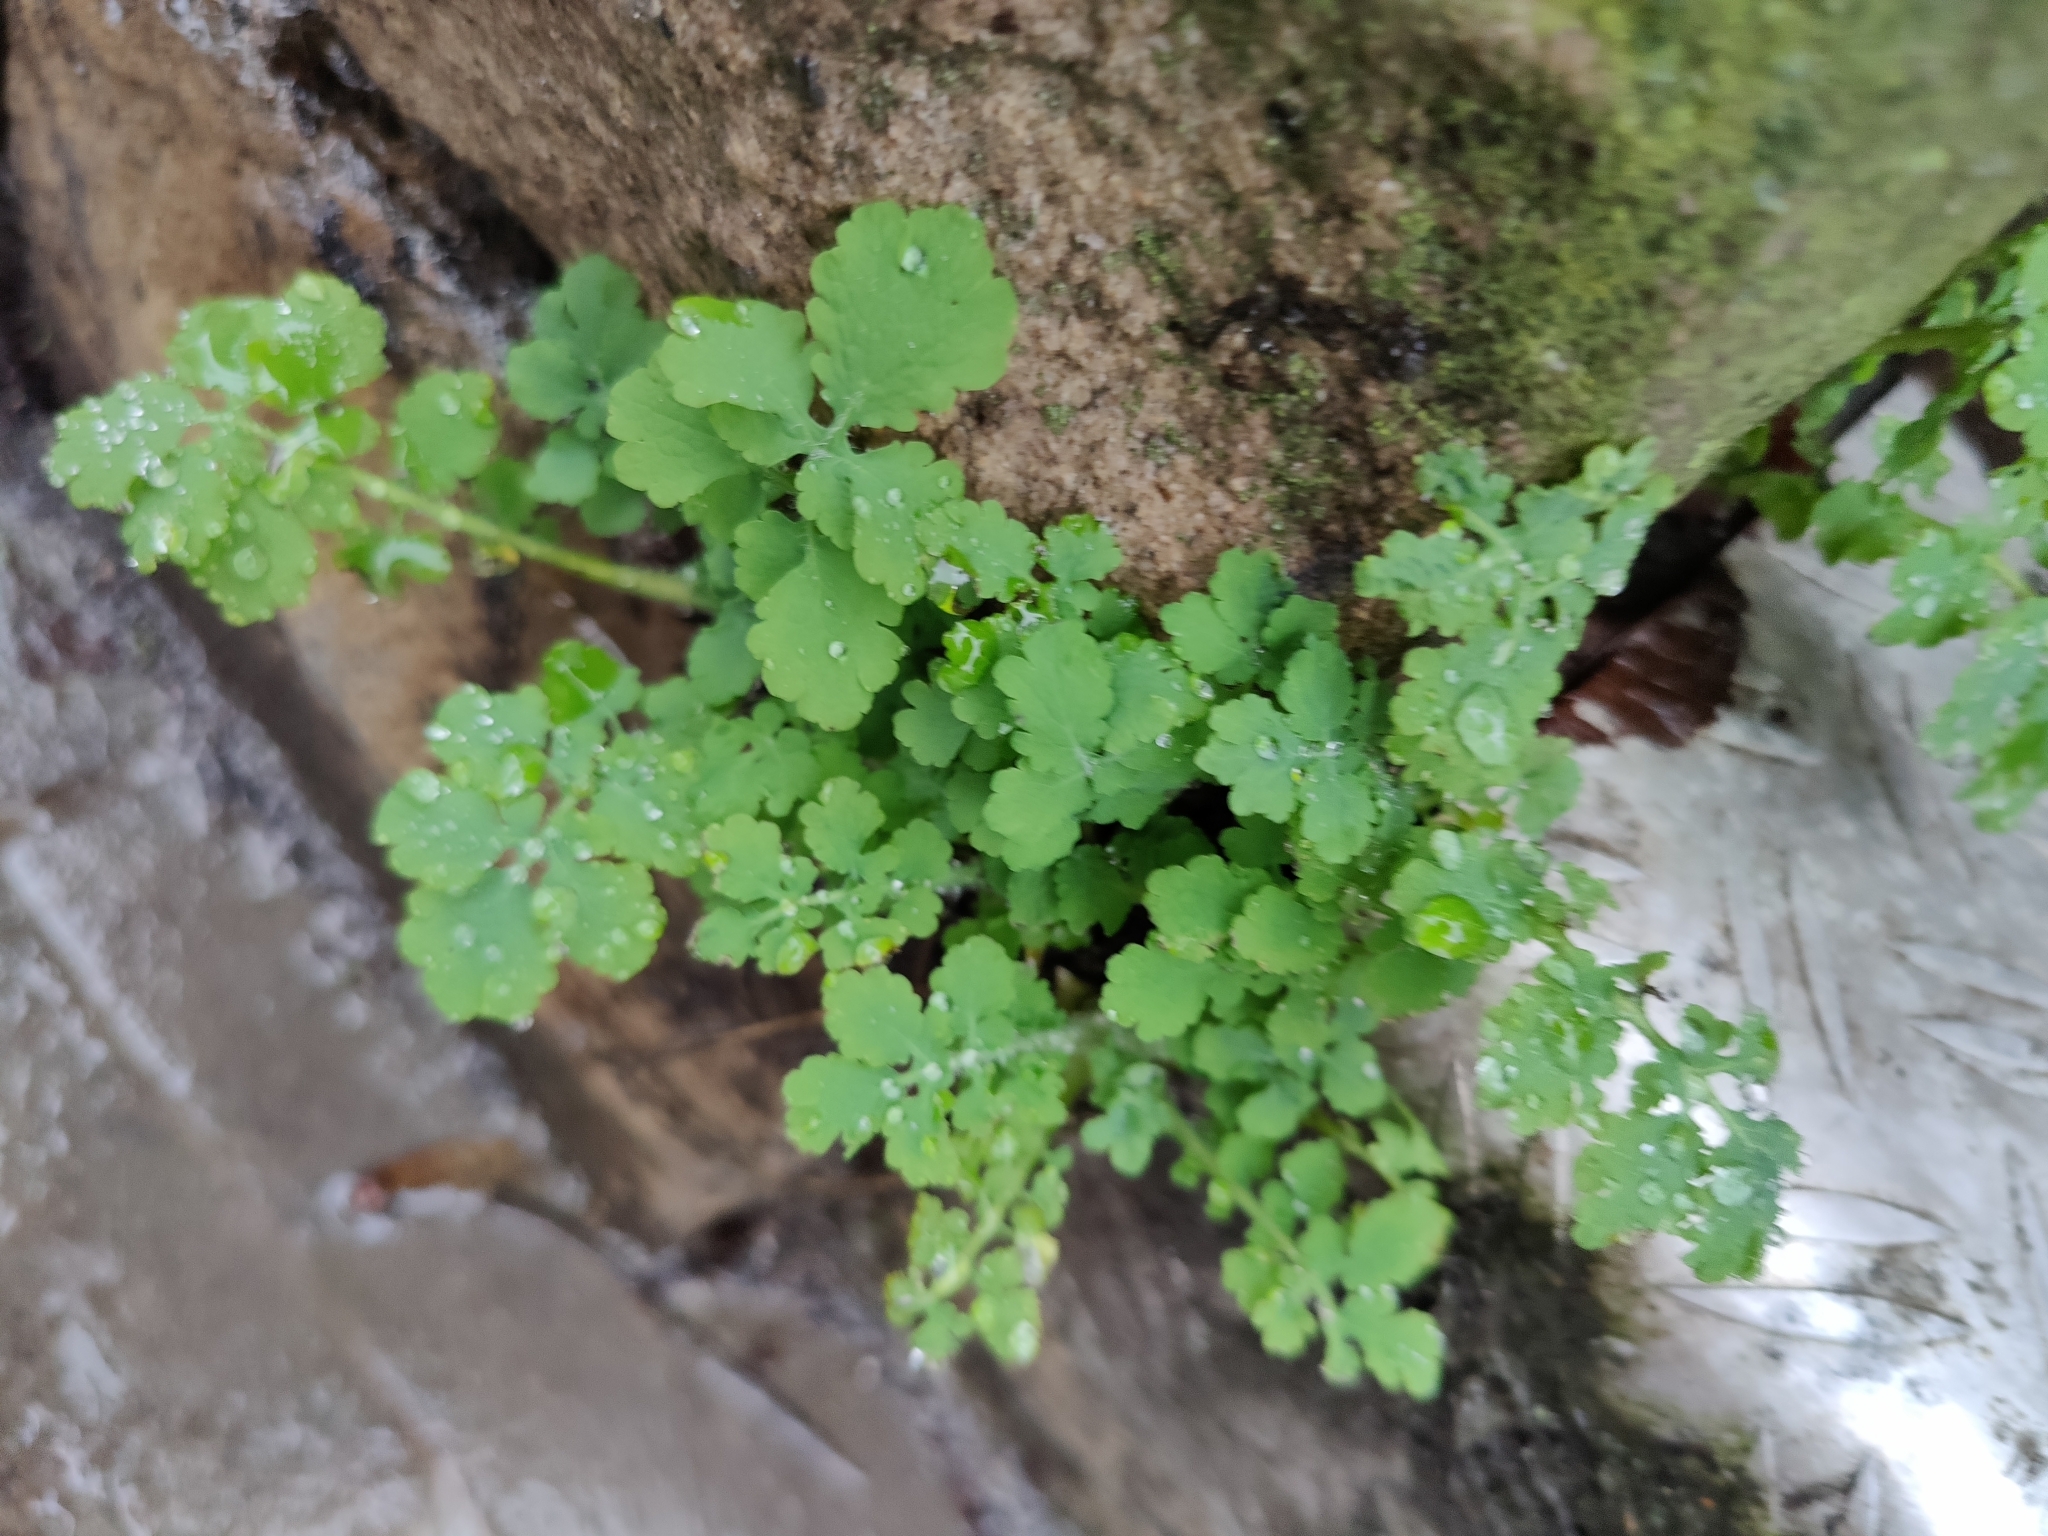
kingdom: Plantae
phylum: Tracheophyta
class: Magnoliopsida
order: Ranunculales
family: Papaveraceae
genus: Chelidonium
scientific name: Chelidonium majus
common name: Greater celandine
